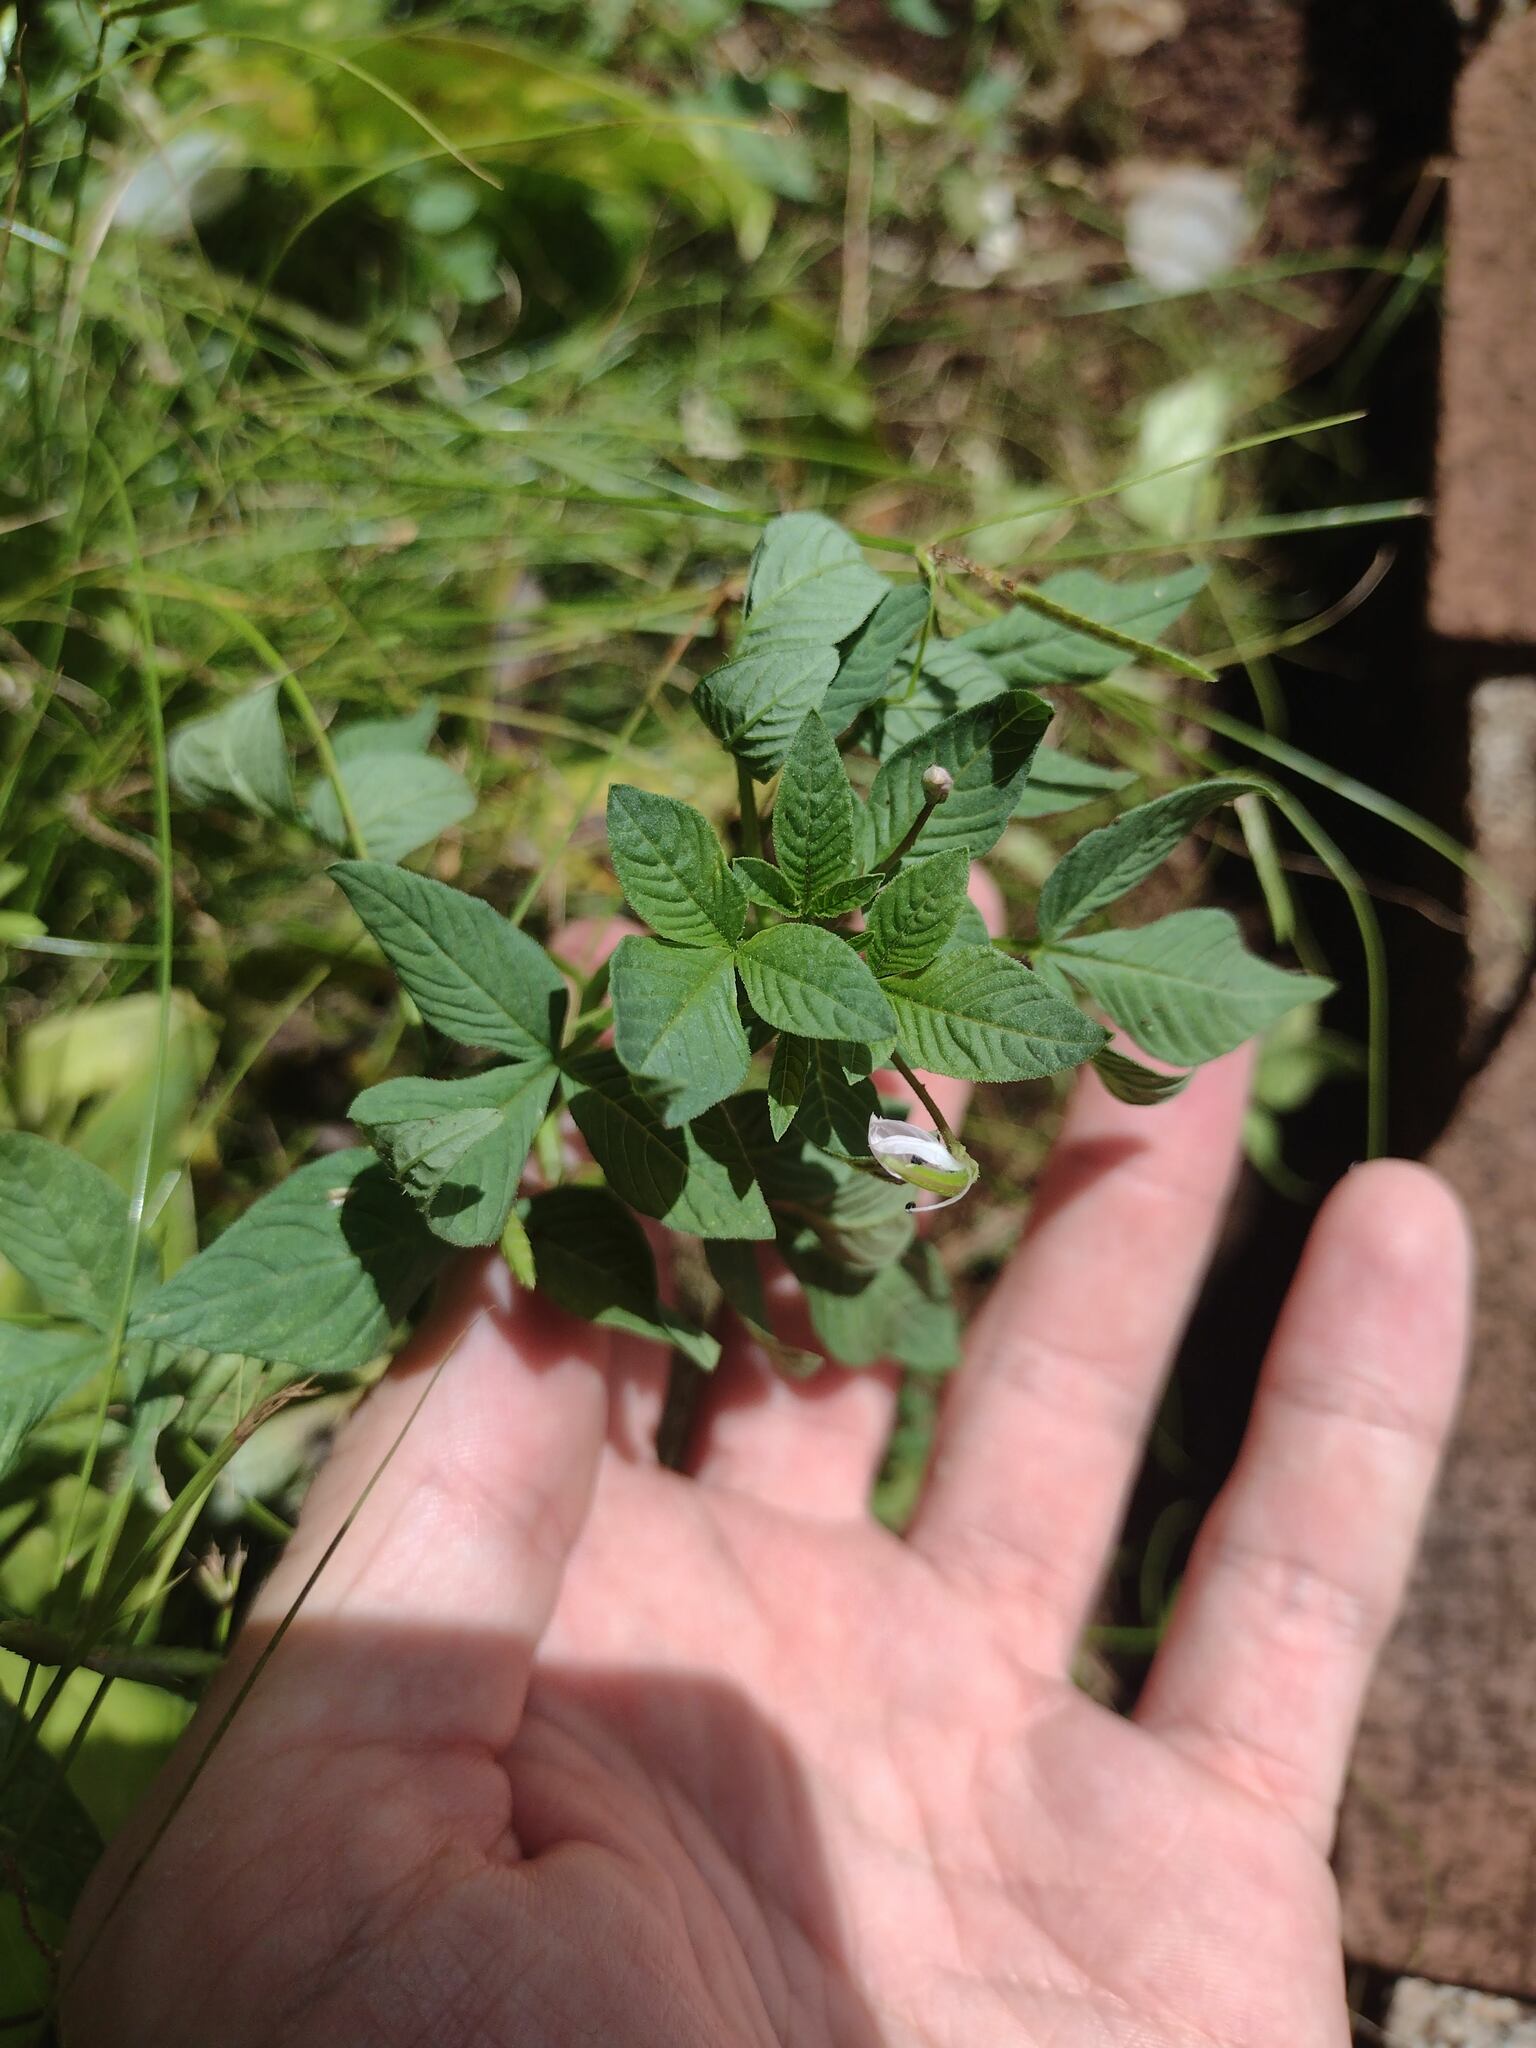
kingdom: Plantae
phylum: Tracheophyta
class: Magnoliopsida
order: Brassicales
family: Cleomaceae
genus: Sieruela
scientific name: Sieruela rutidosperma
